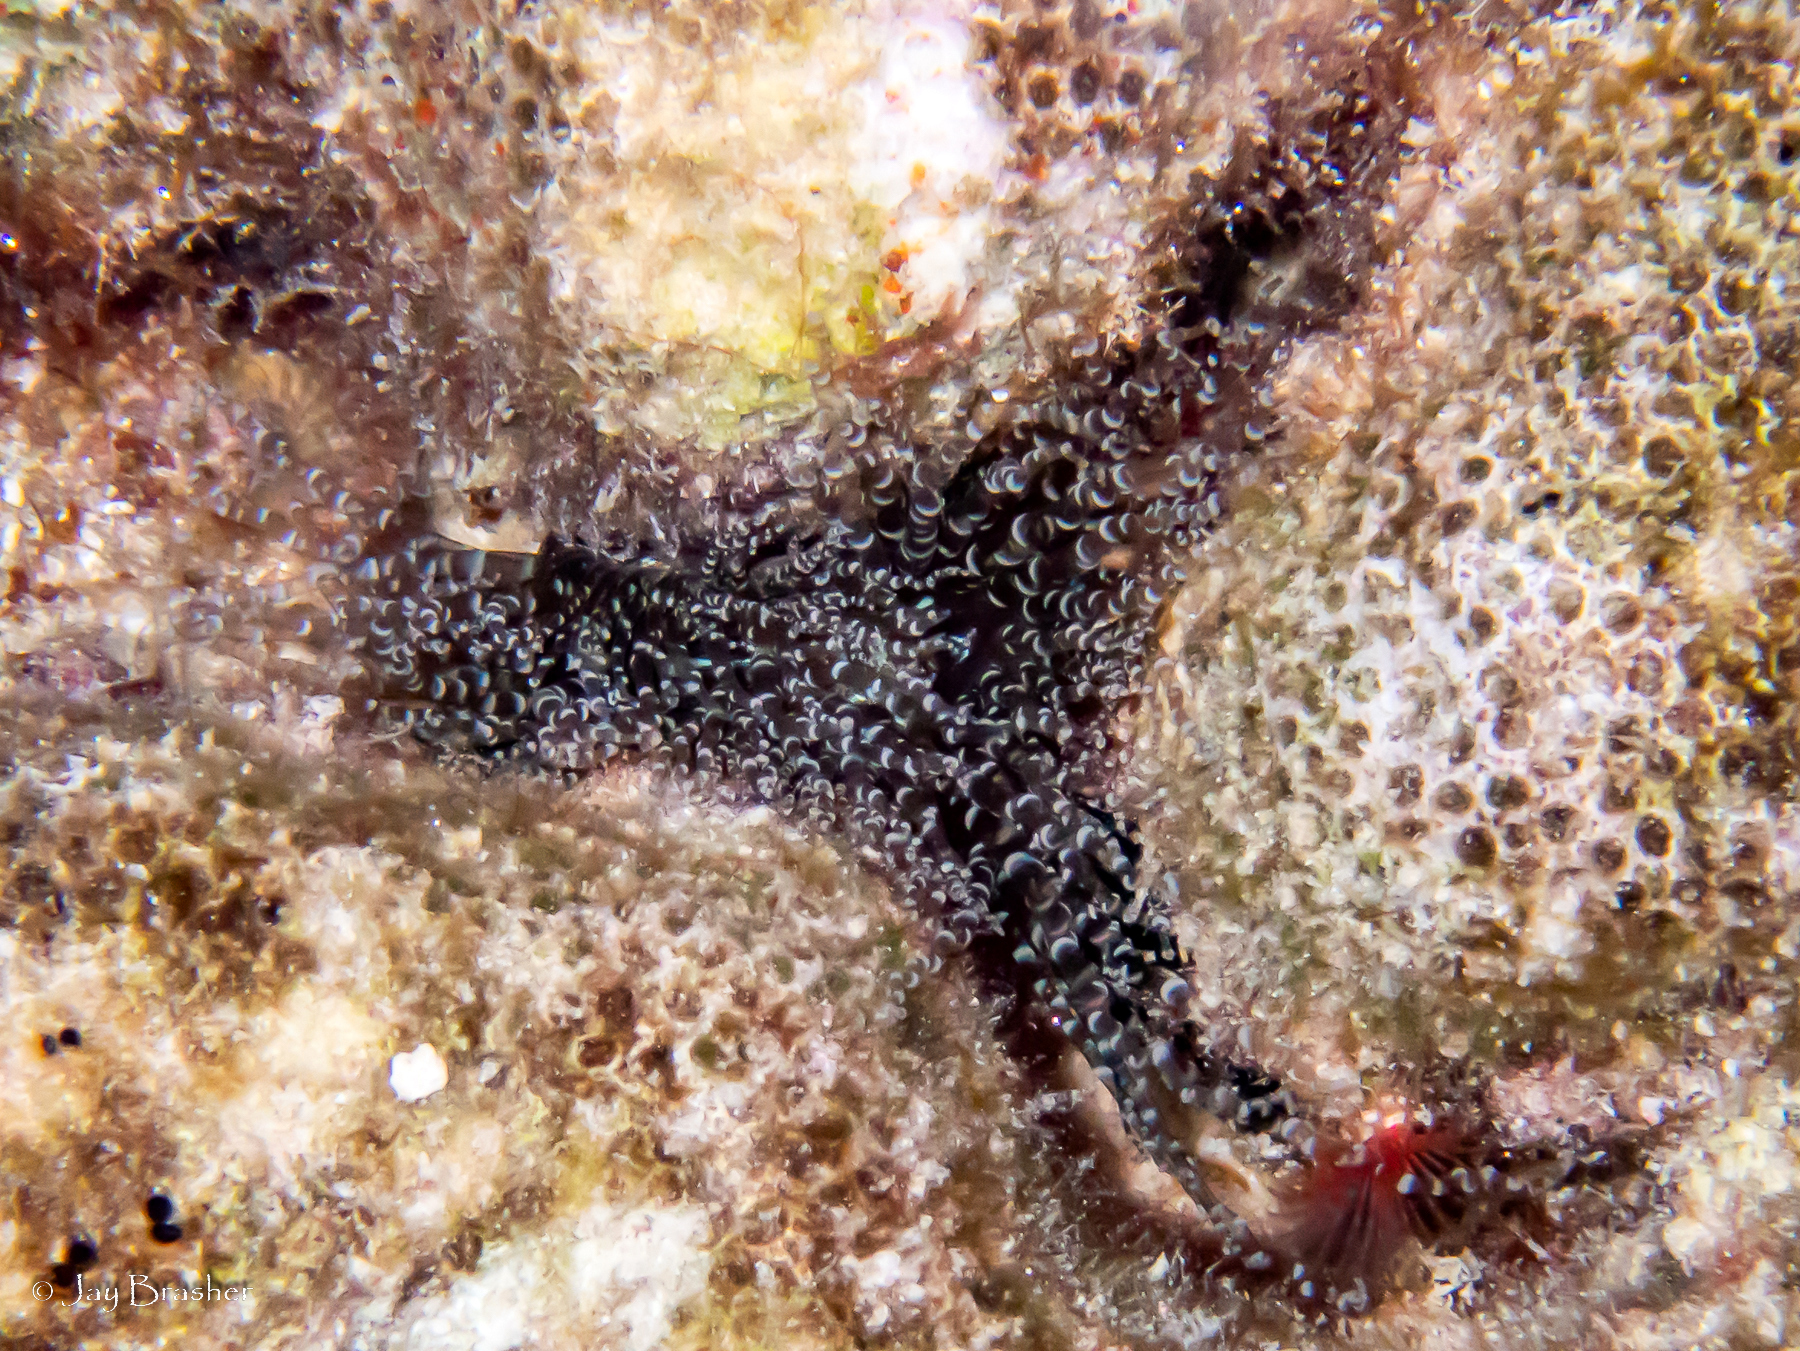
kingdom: Animalia
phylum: Cnidaria
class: Anthozoa
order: Actiniaria
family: Aiptasiidae
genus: Bartholomea
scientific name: Bartholomea annulata
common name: Corkscrew anemone
